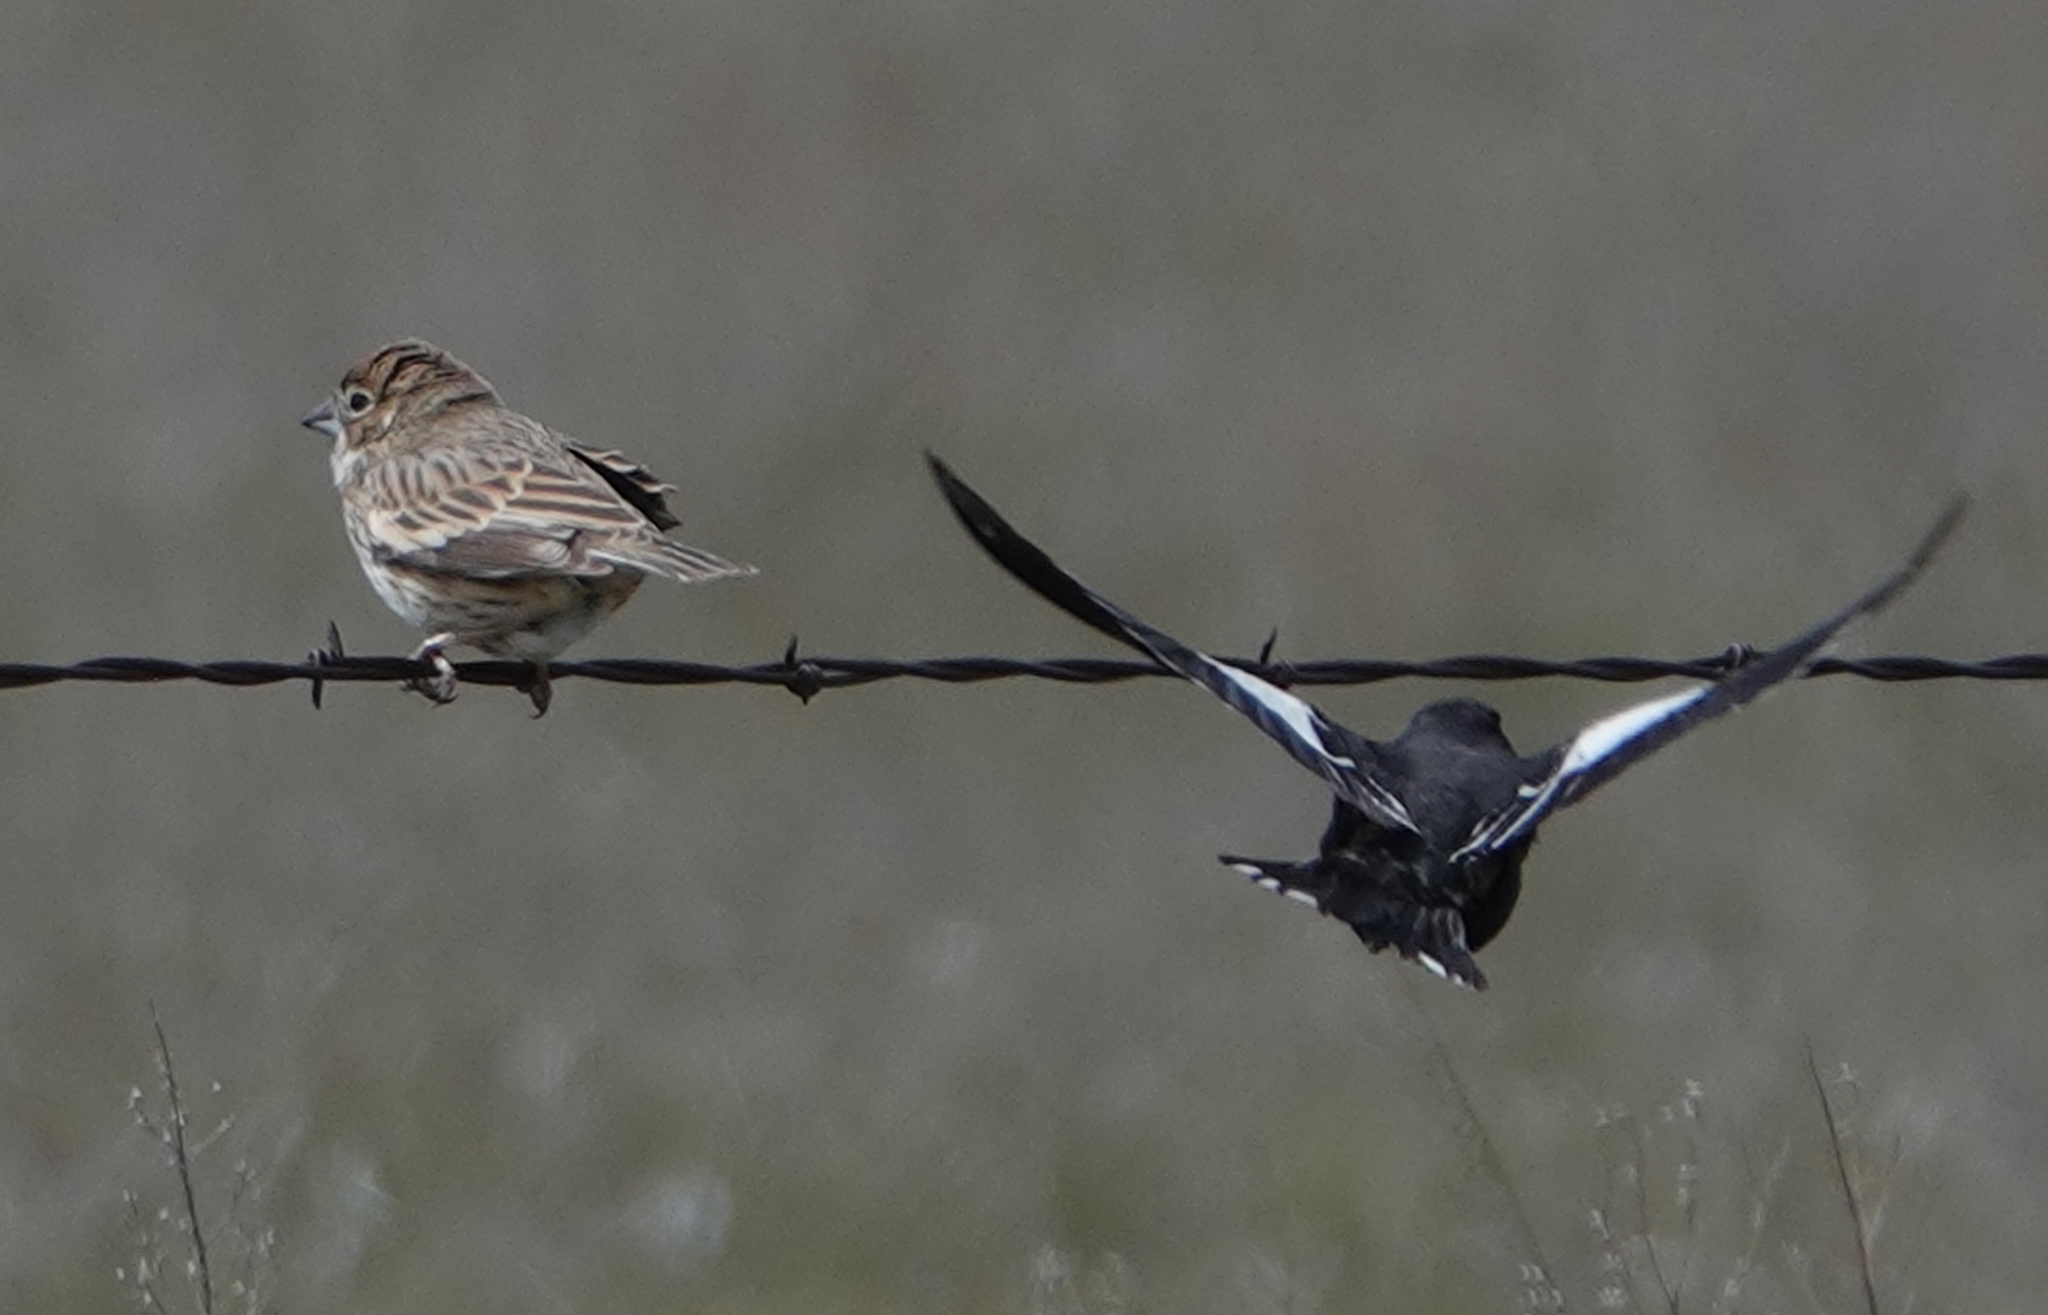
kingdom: Animalia
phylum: Chordata
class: Aves
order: Passeriformes
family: Passerellidae
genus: Calamospiza
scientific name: Calamospiza melanocorys
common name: Lark bunting
